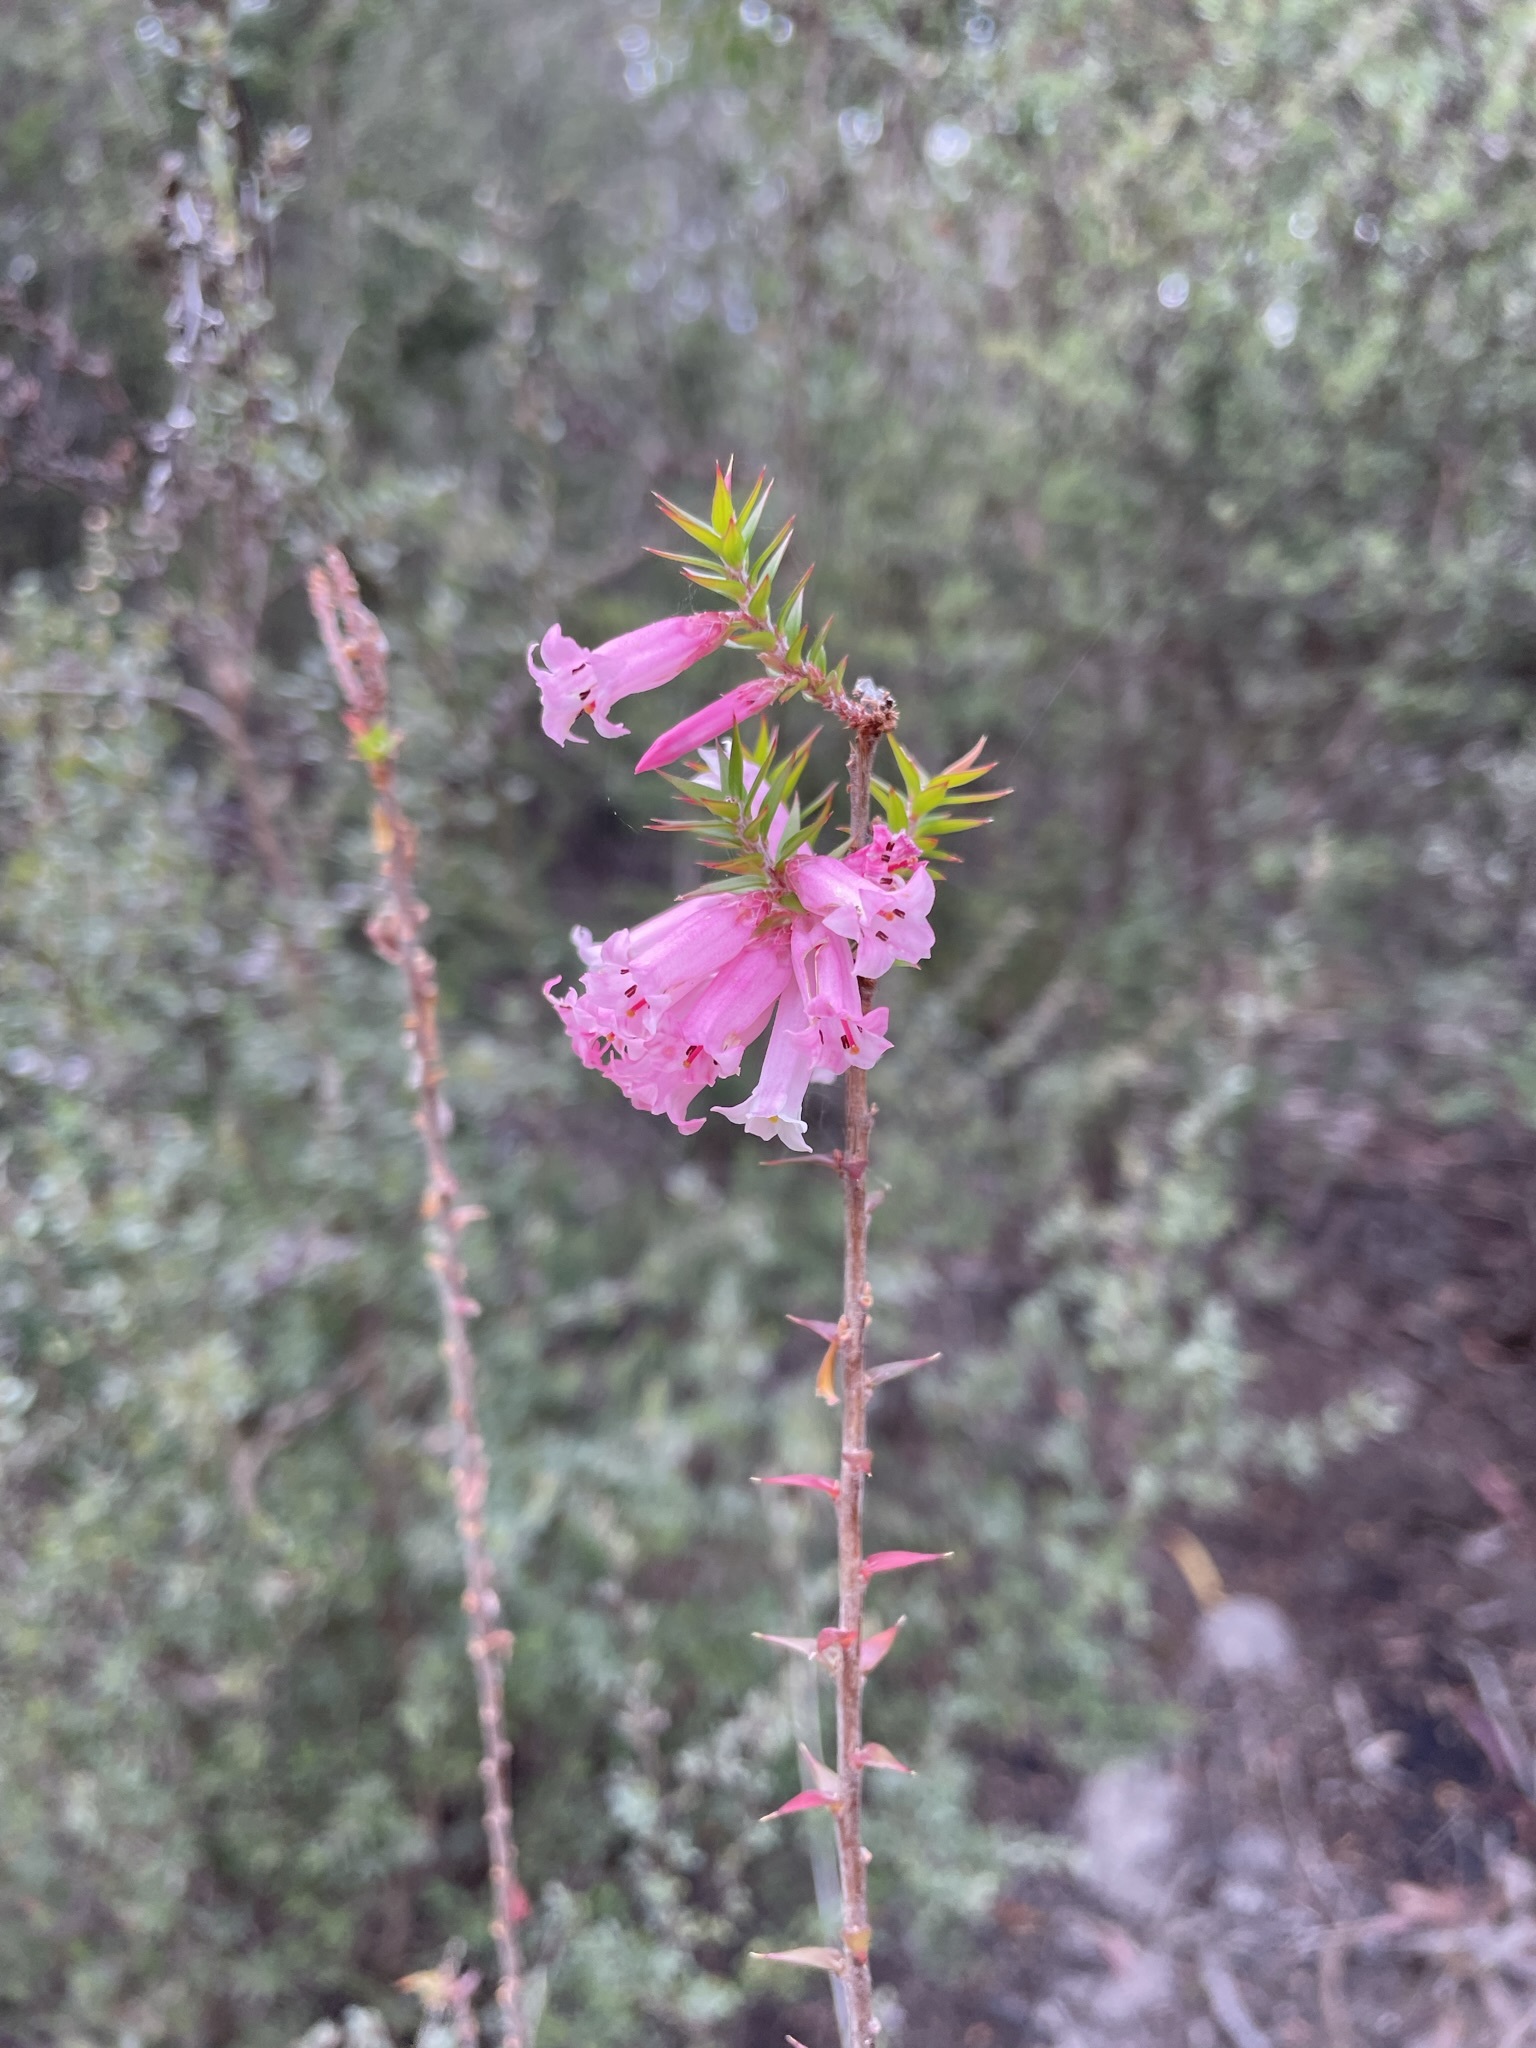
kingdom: Plantae
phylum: Tracheophyta
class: Magnoliopsida
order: Ericales
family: Ericaceae
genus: Epacris
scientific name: Epacris impressa
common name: Common-heath
